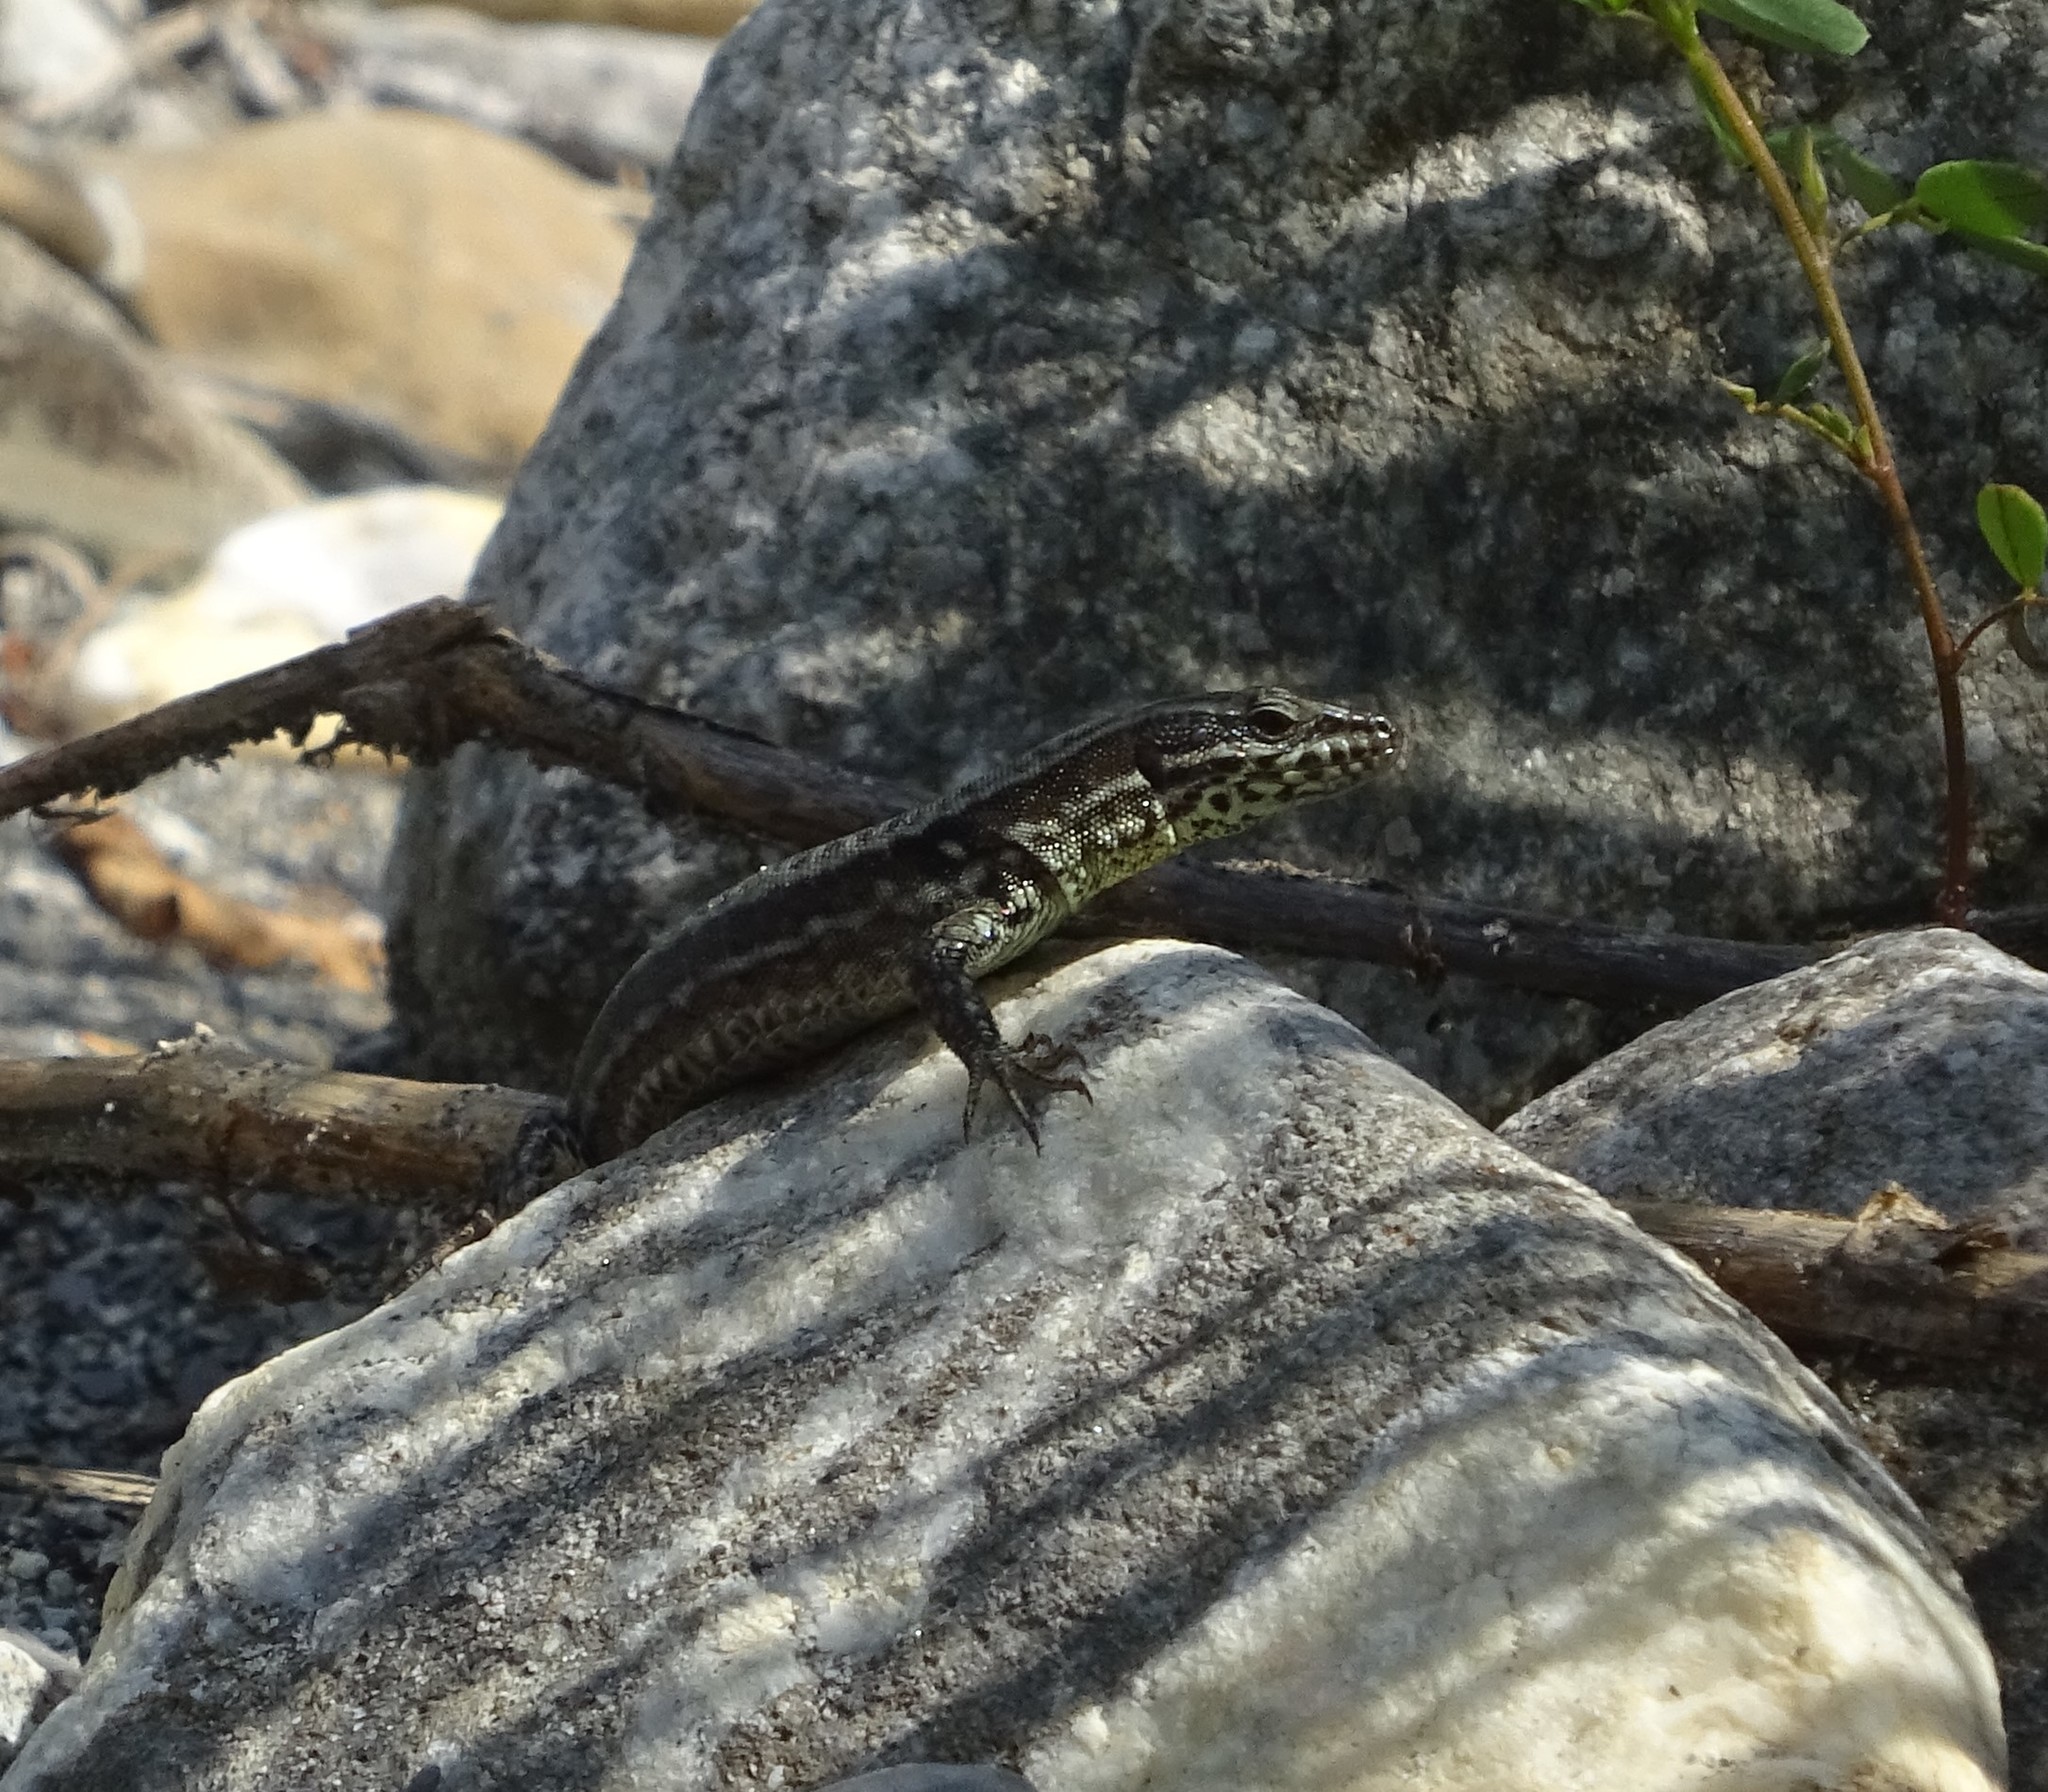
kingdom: Animalia
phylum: Chordata
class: Squamata
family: Lacertidae
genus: Podarcis
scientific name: Podarcis muralis
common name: Common wall lizard
